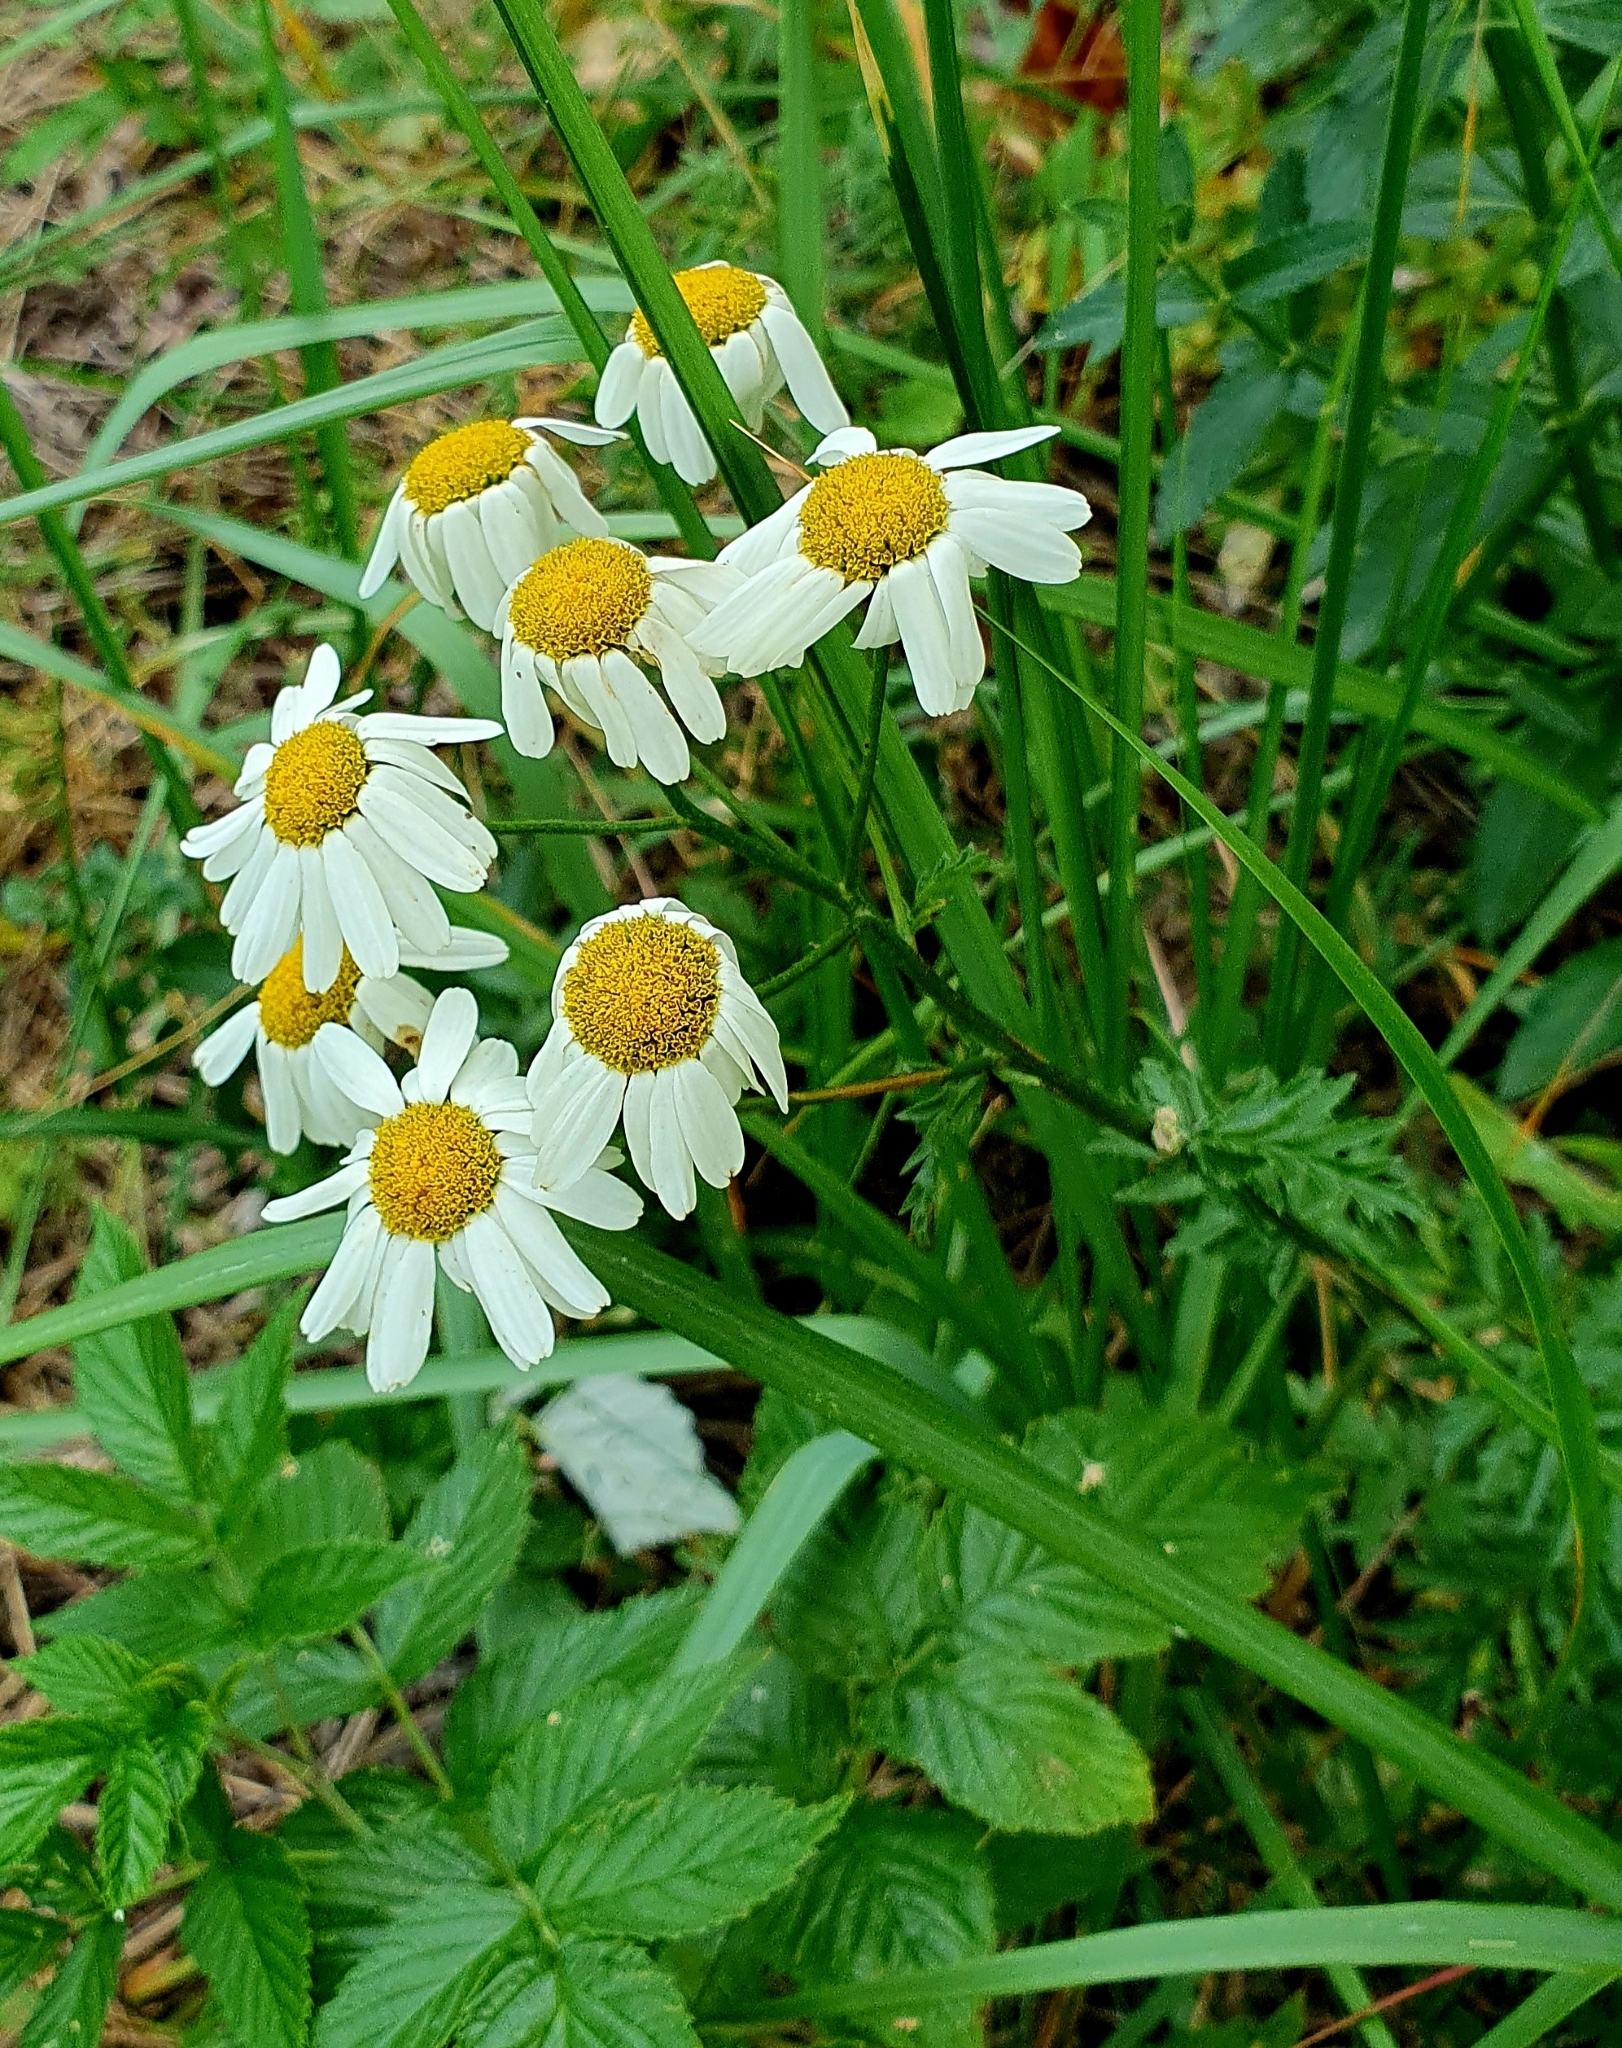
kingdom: Plantae
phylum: Tracheophyta
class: Magnoliopsida
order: Asterales
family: Asteraceae
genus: Tanacetum
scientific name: Tanacetum corymbosum
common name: Scentless feverfew
